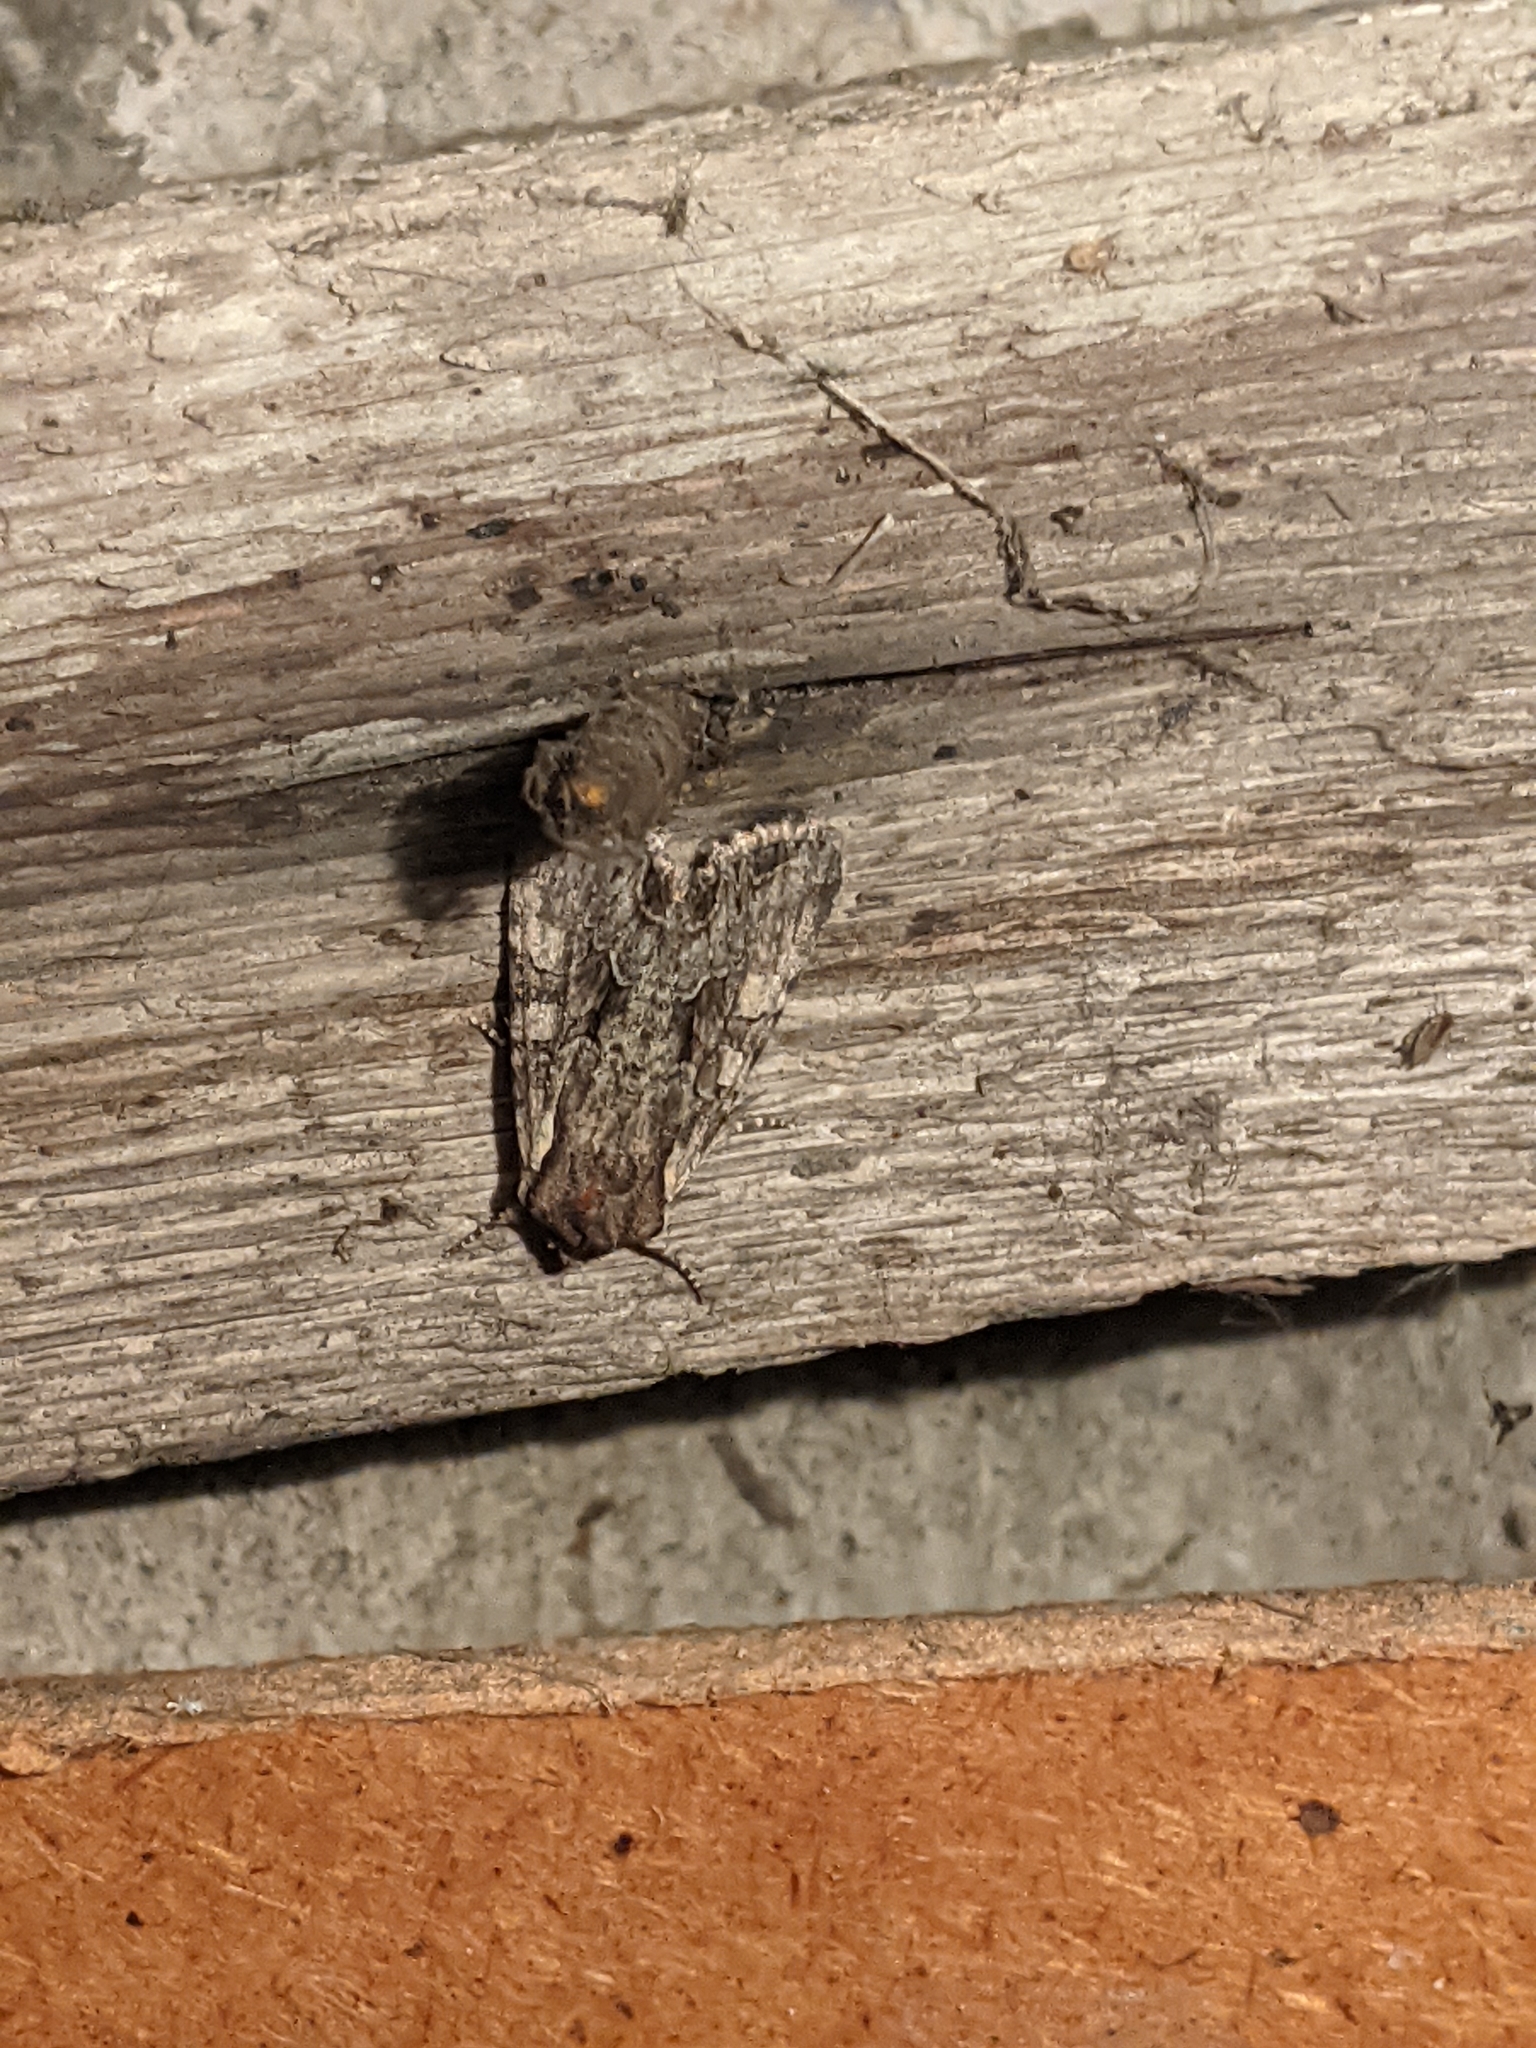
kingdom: Animalia
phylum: Arthropoda
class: Insecta
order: Lepidoptera
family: Noctuidae
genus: Lacanobia
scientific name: Lacanobia thalassina
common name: Pale-shouldered brocade
